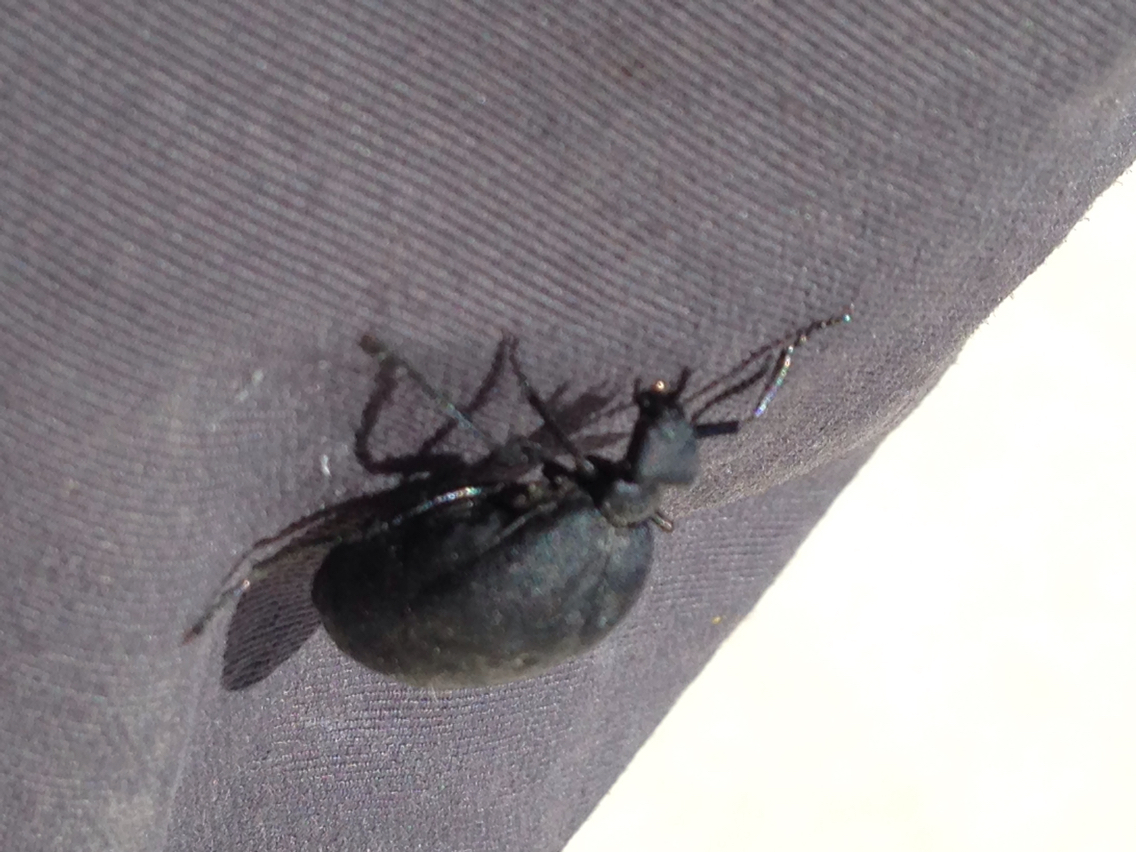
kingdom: Animalia
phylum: Arthropoda
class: Insecta
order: Coleoptera
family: Meloidae
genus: Cordylospasta
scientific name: Cordylospasta opaca
